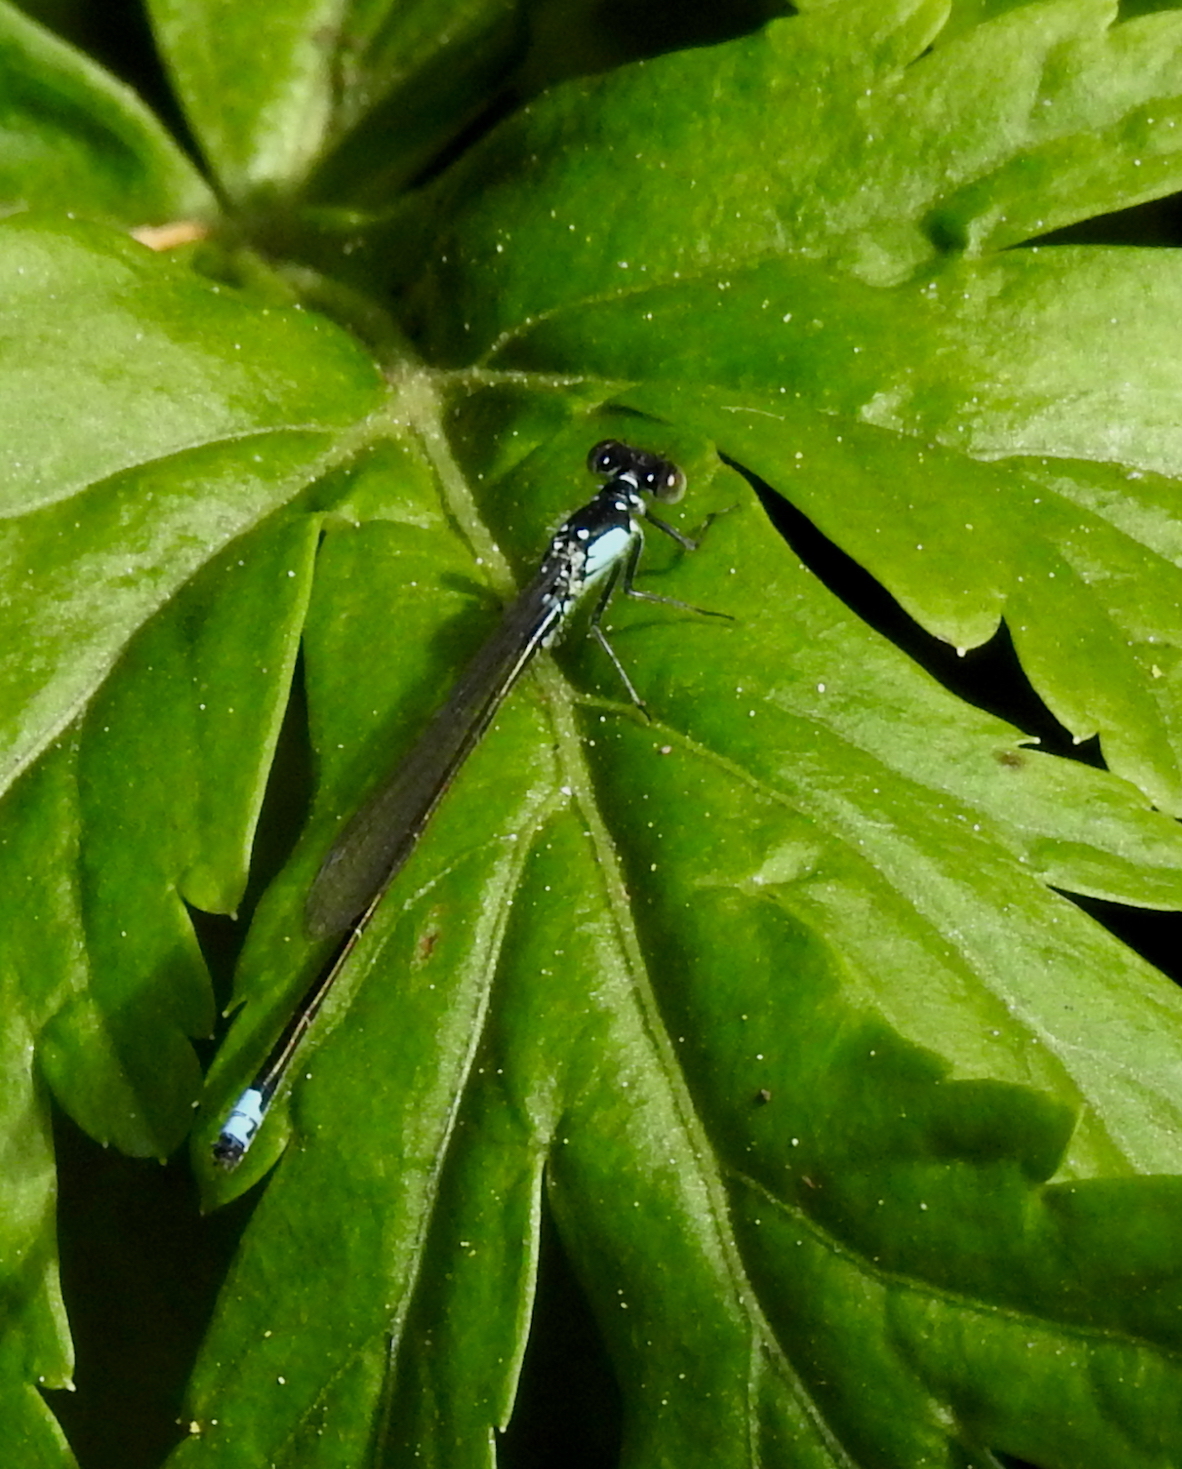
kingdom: Animalia
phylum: Arthropoda
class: Insecta
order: Odonata
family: Coenagrionidae
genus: Ischnura
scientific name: Ischnura cervula
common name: Pacific forktail
